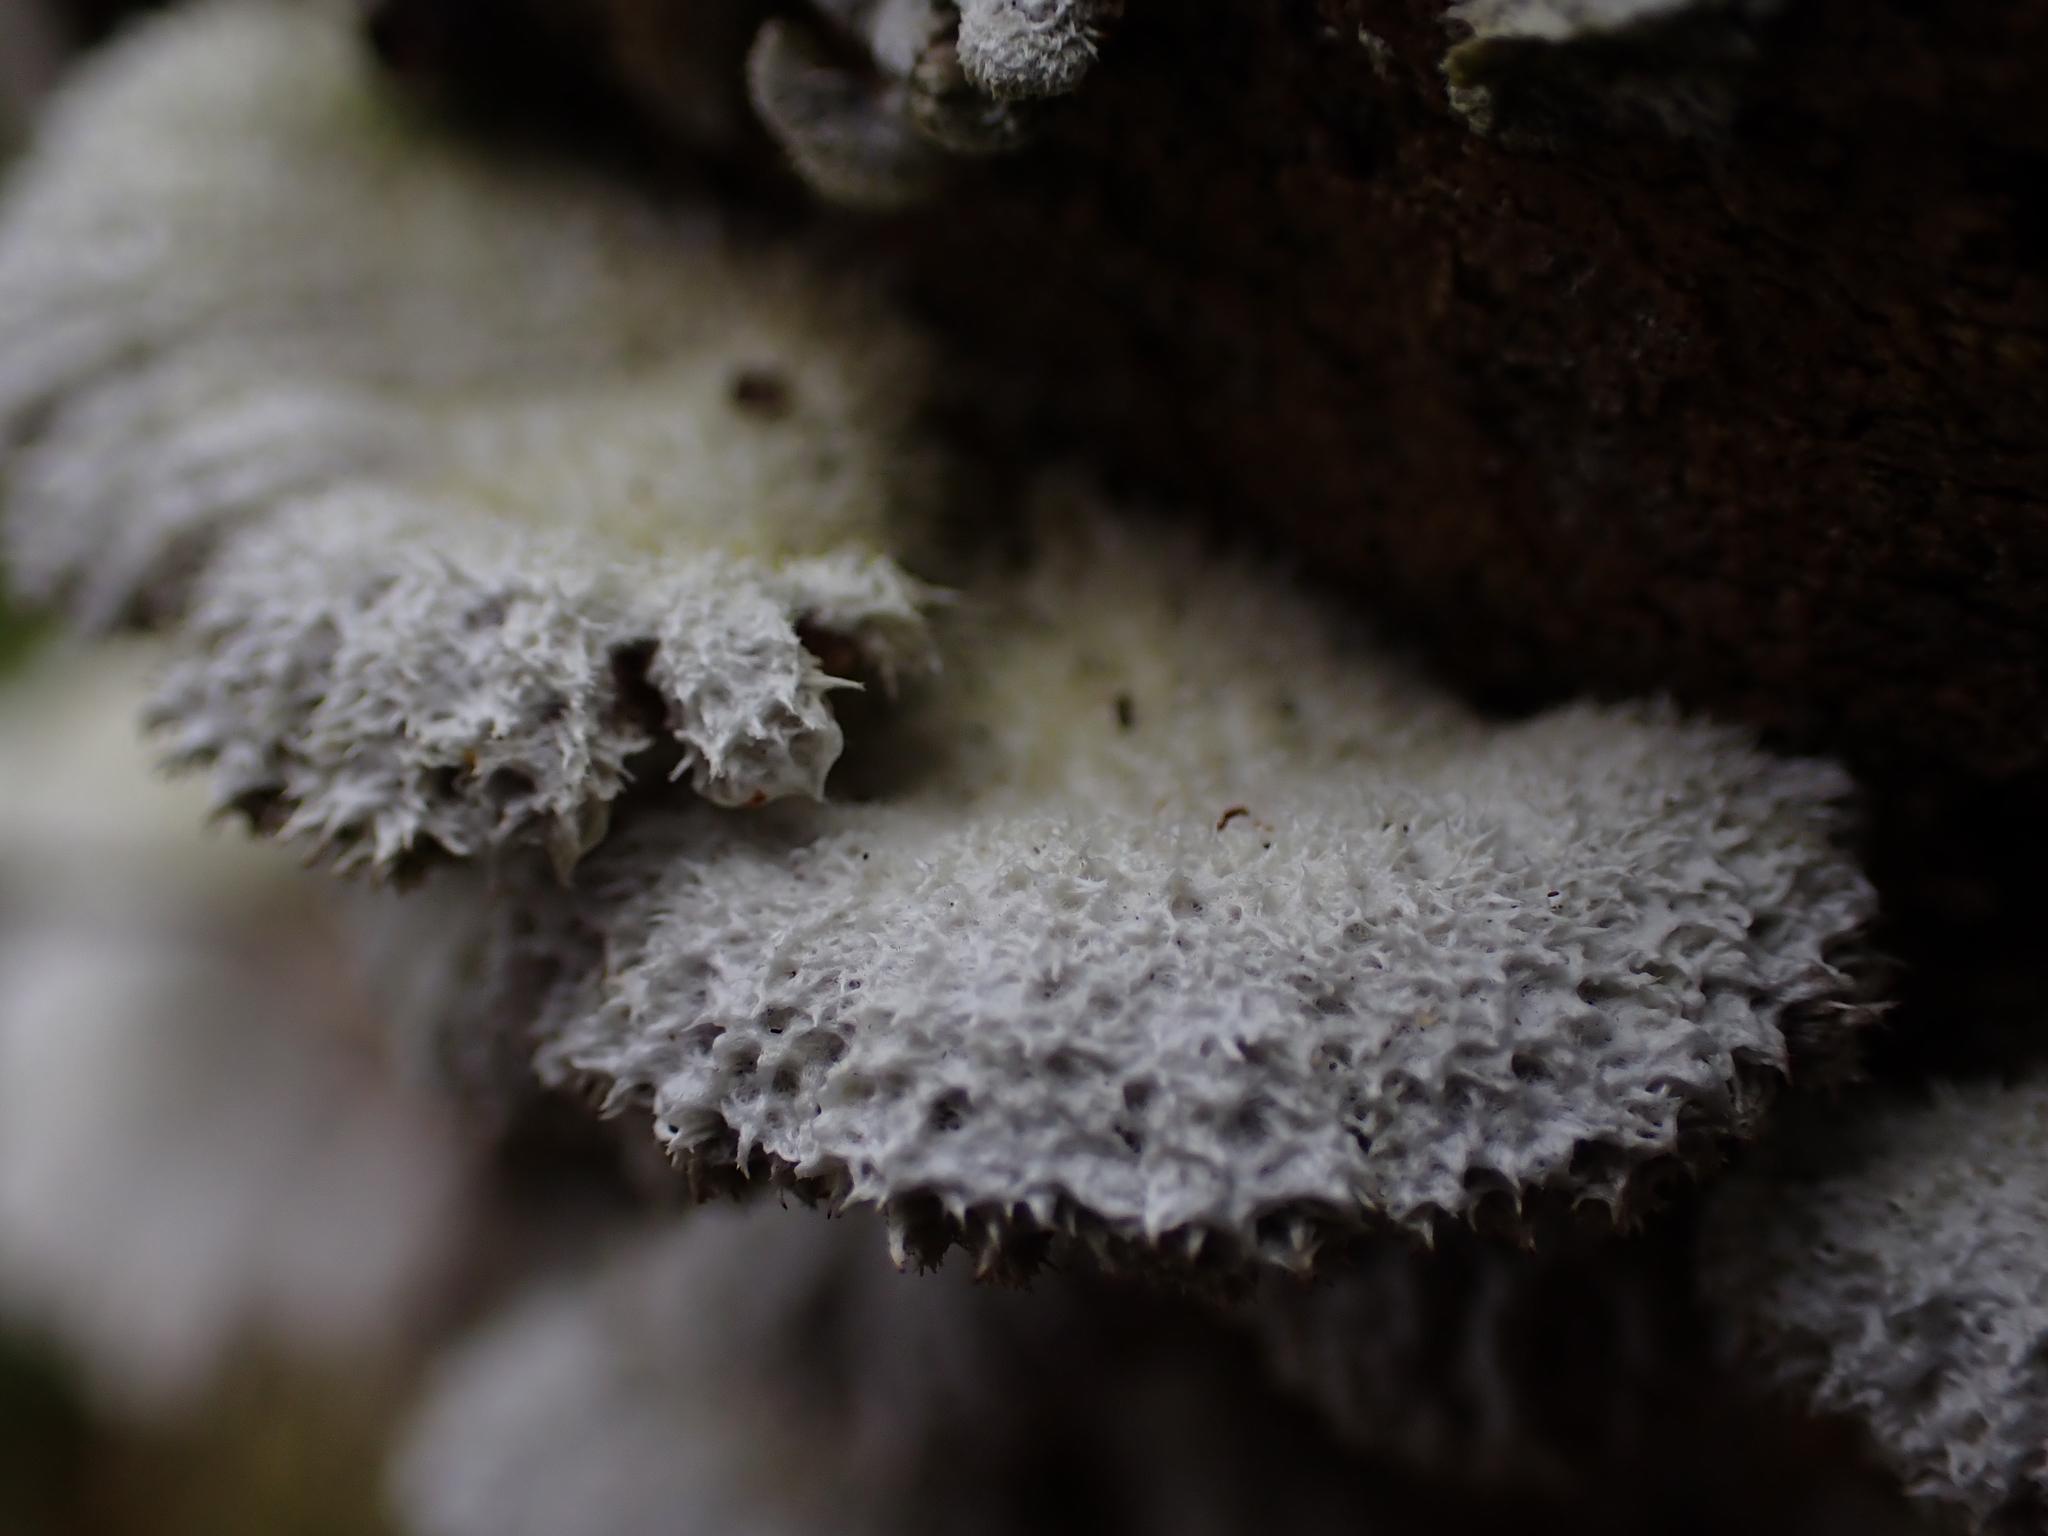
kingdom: Fungi
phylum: Basidiomycota
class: Agaricomycetes
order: Agaricales
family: Schizophyllaceae
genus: Schizophyllum
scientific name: Schizophyllum commune
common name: Common porecrust
